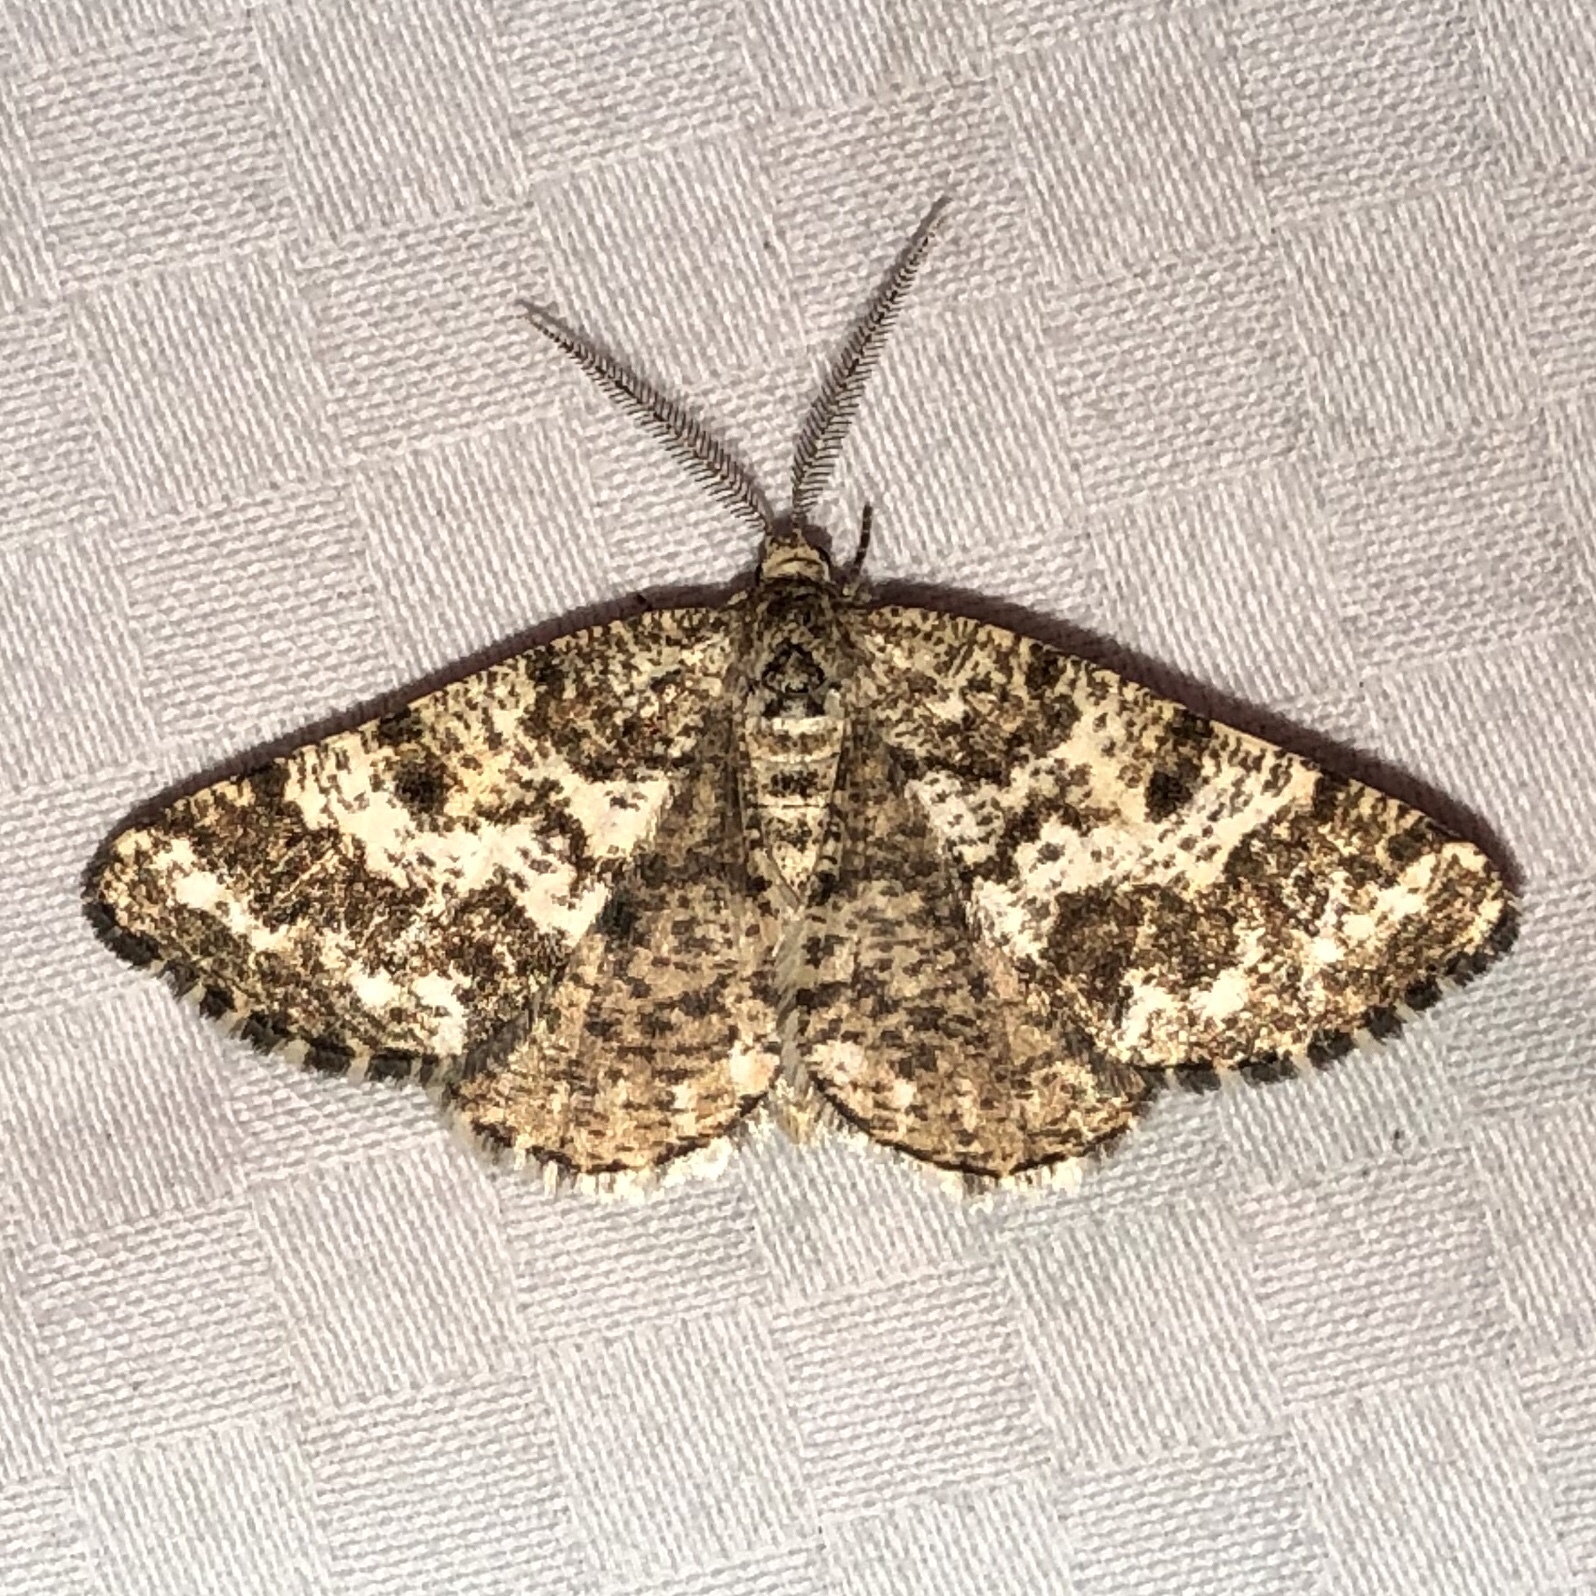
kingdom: Animalia
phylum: Arthropoda
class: Insecta
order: Lepidoptera
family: Geometridae
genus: Eufidonia
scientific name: Eufidonia notataria
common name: Powder moth
